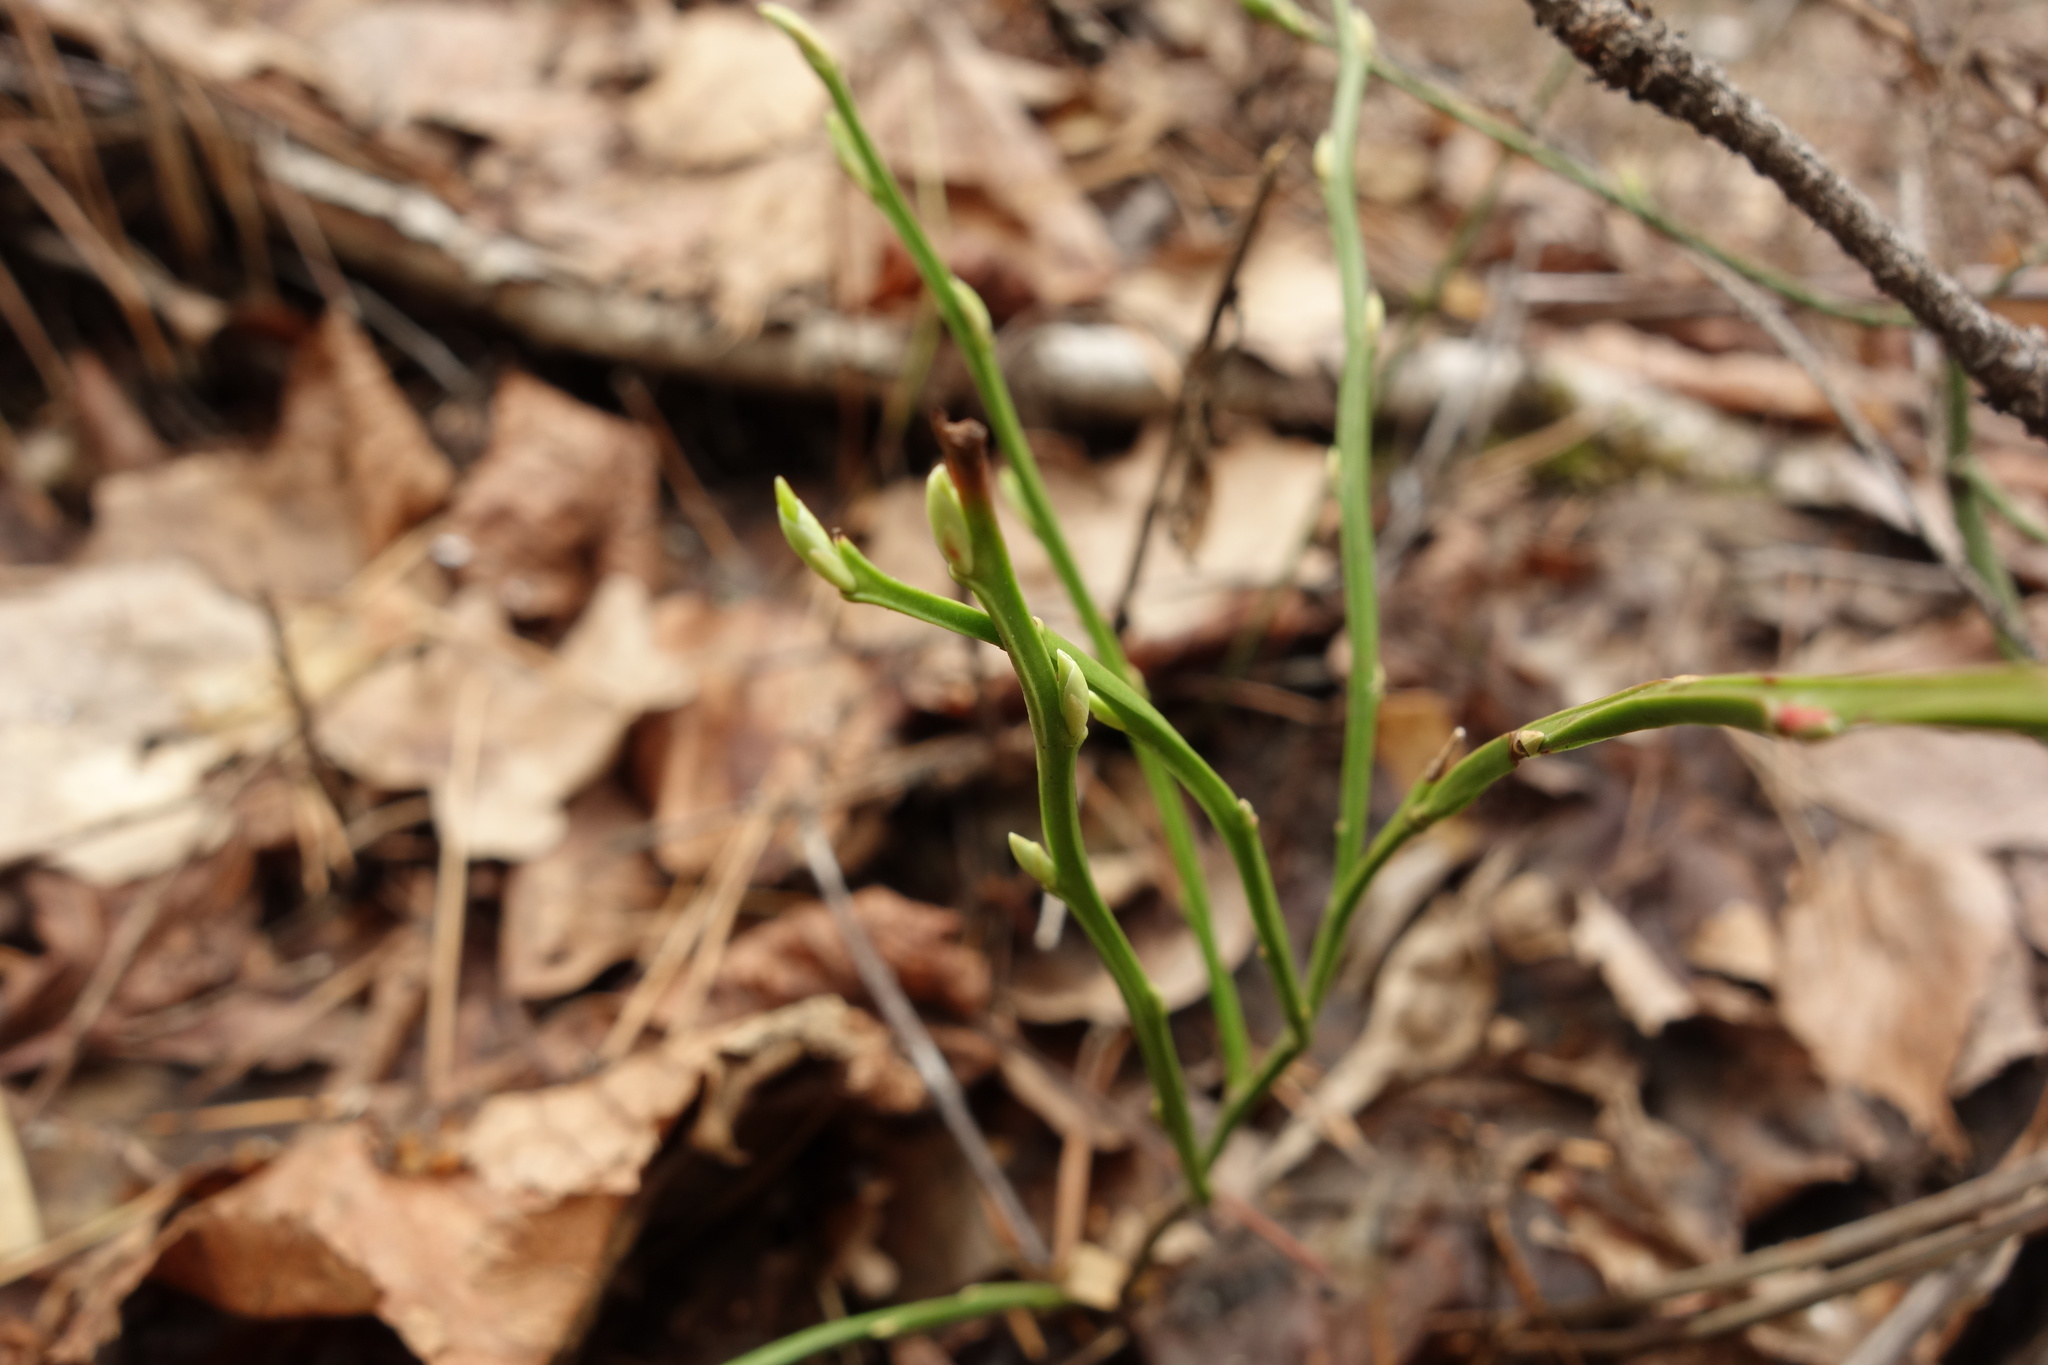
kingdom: Plantae
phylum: Tracheophyta
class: Magnoliopsida
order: Ericales
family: Ericaceae
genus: Vaccinium
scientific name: Vaccinium myrtillus
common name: Bilberry
